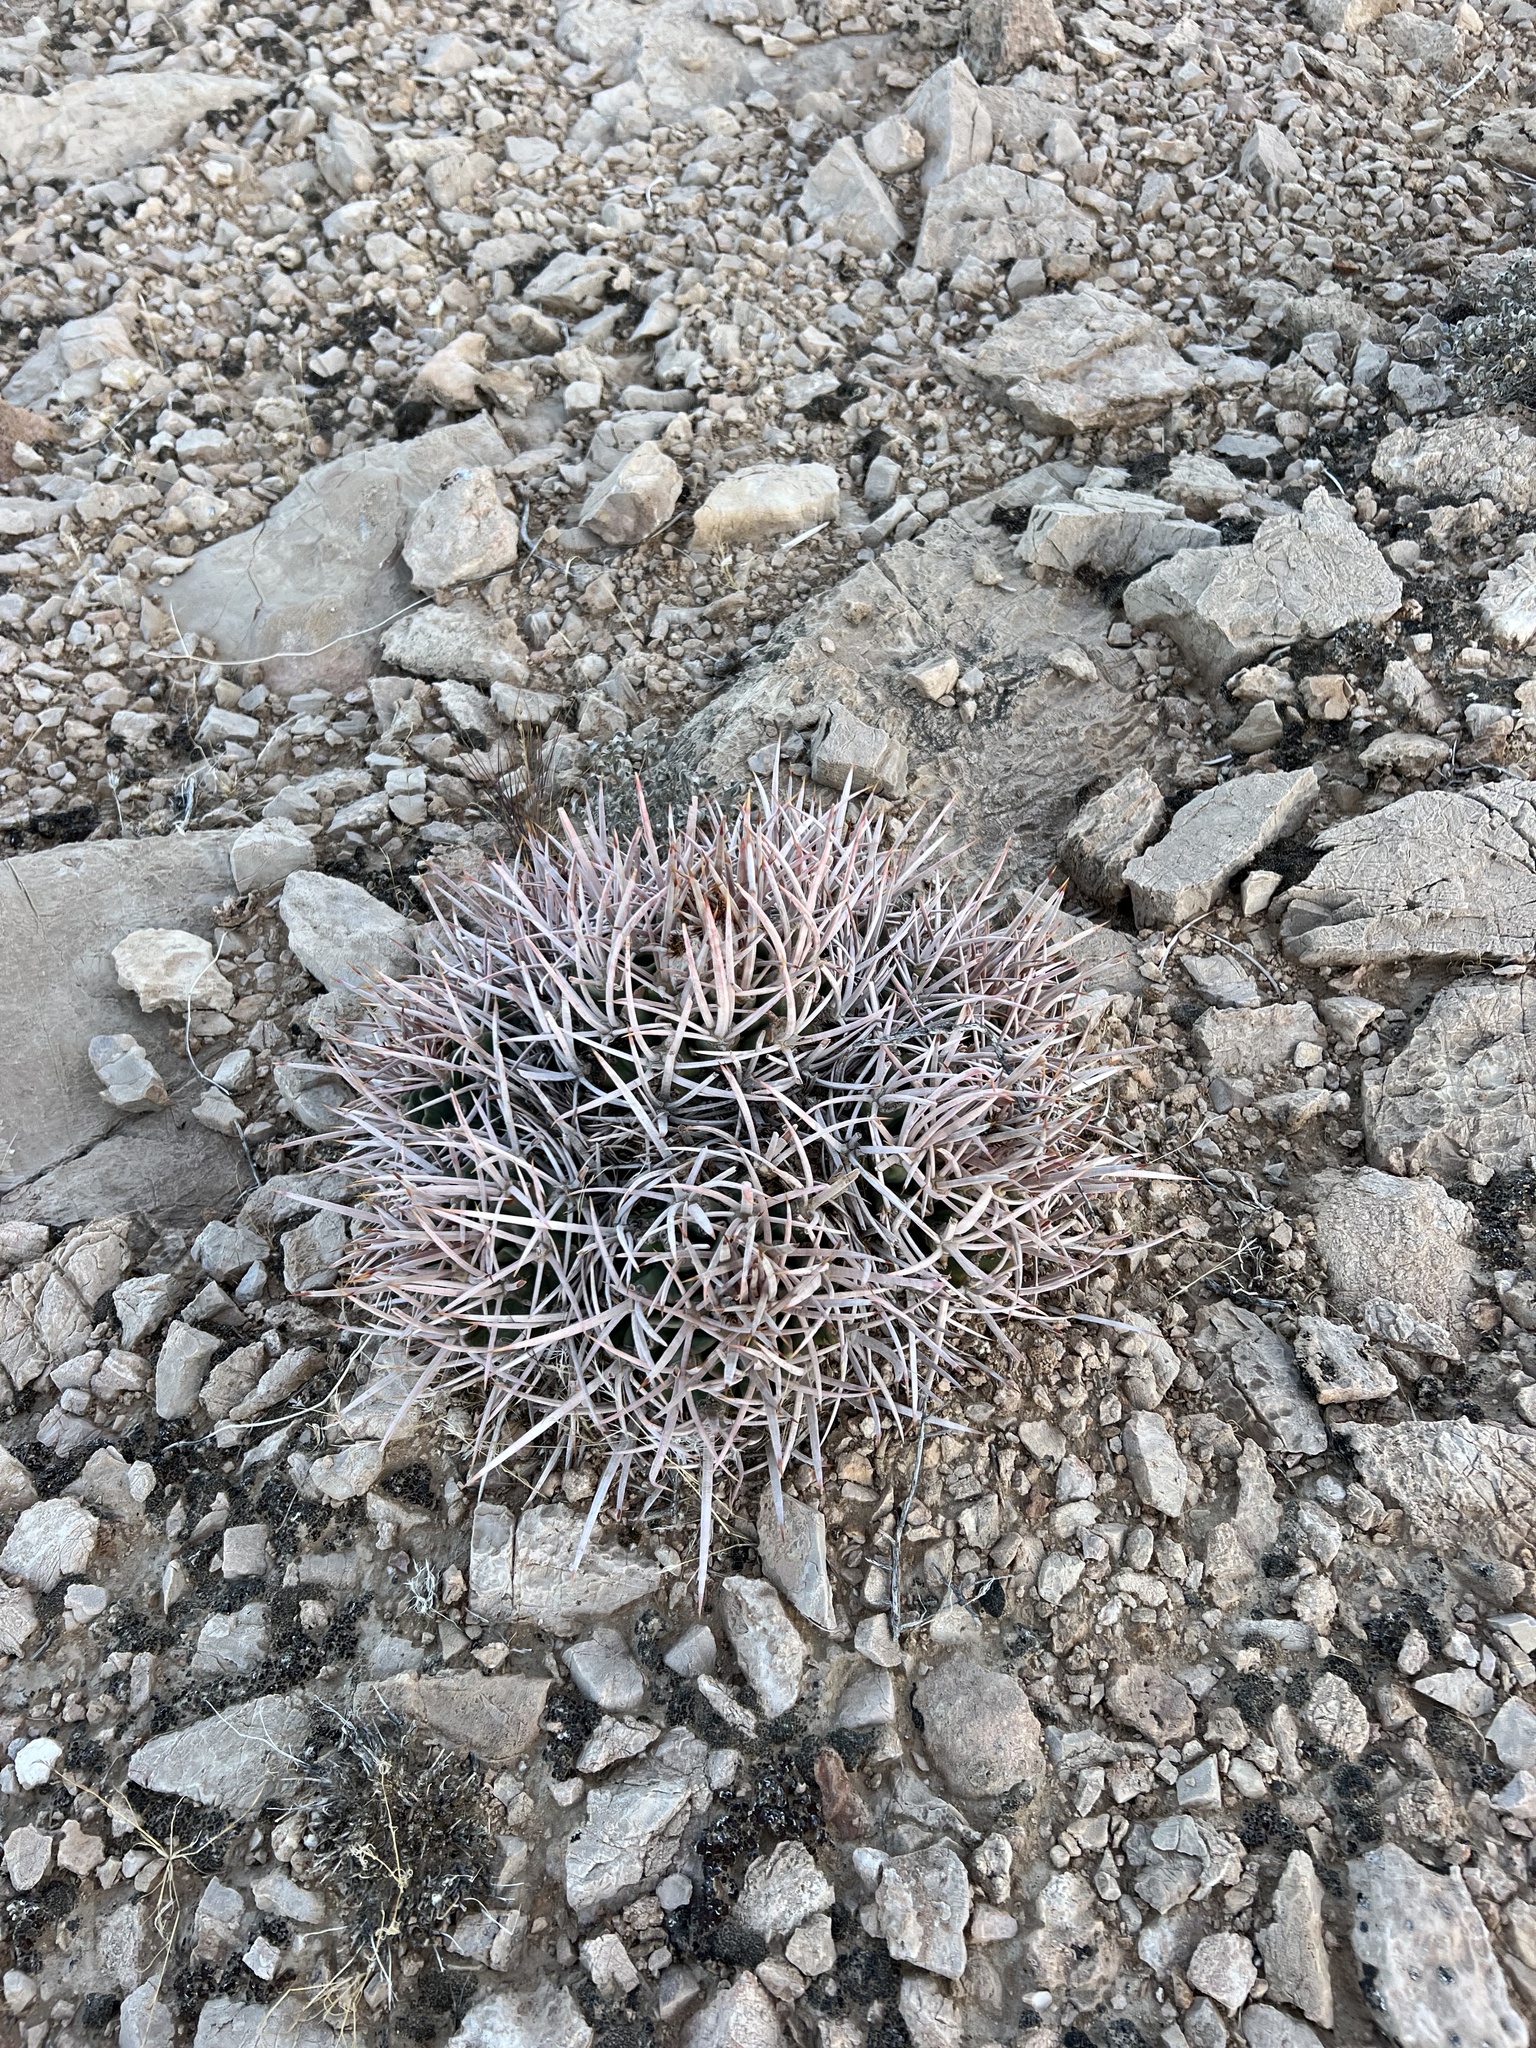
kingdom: Plantae
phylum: Tracheophyta
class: Magnoliopsida
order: Caryophyllales
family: Cactaceae
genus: Echinocactus
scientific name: Echinocactus polycephalus
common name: Cottontop cactus
